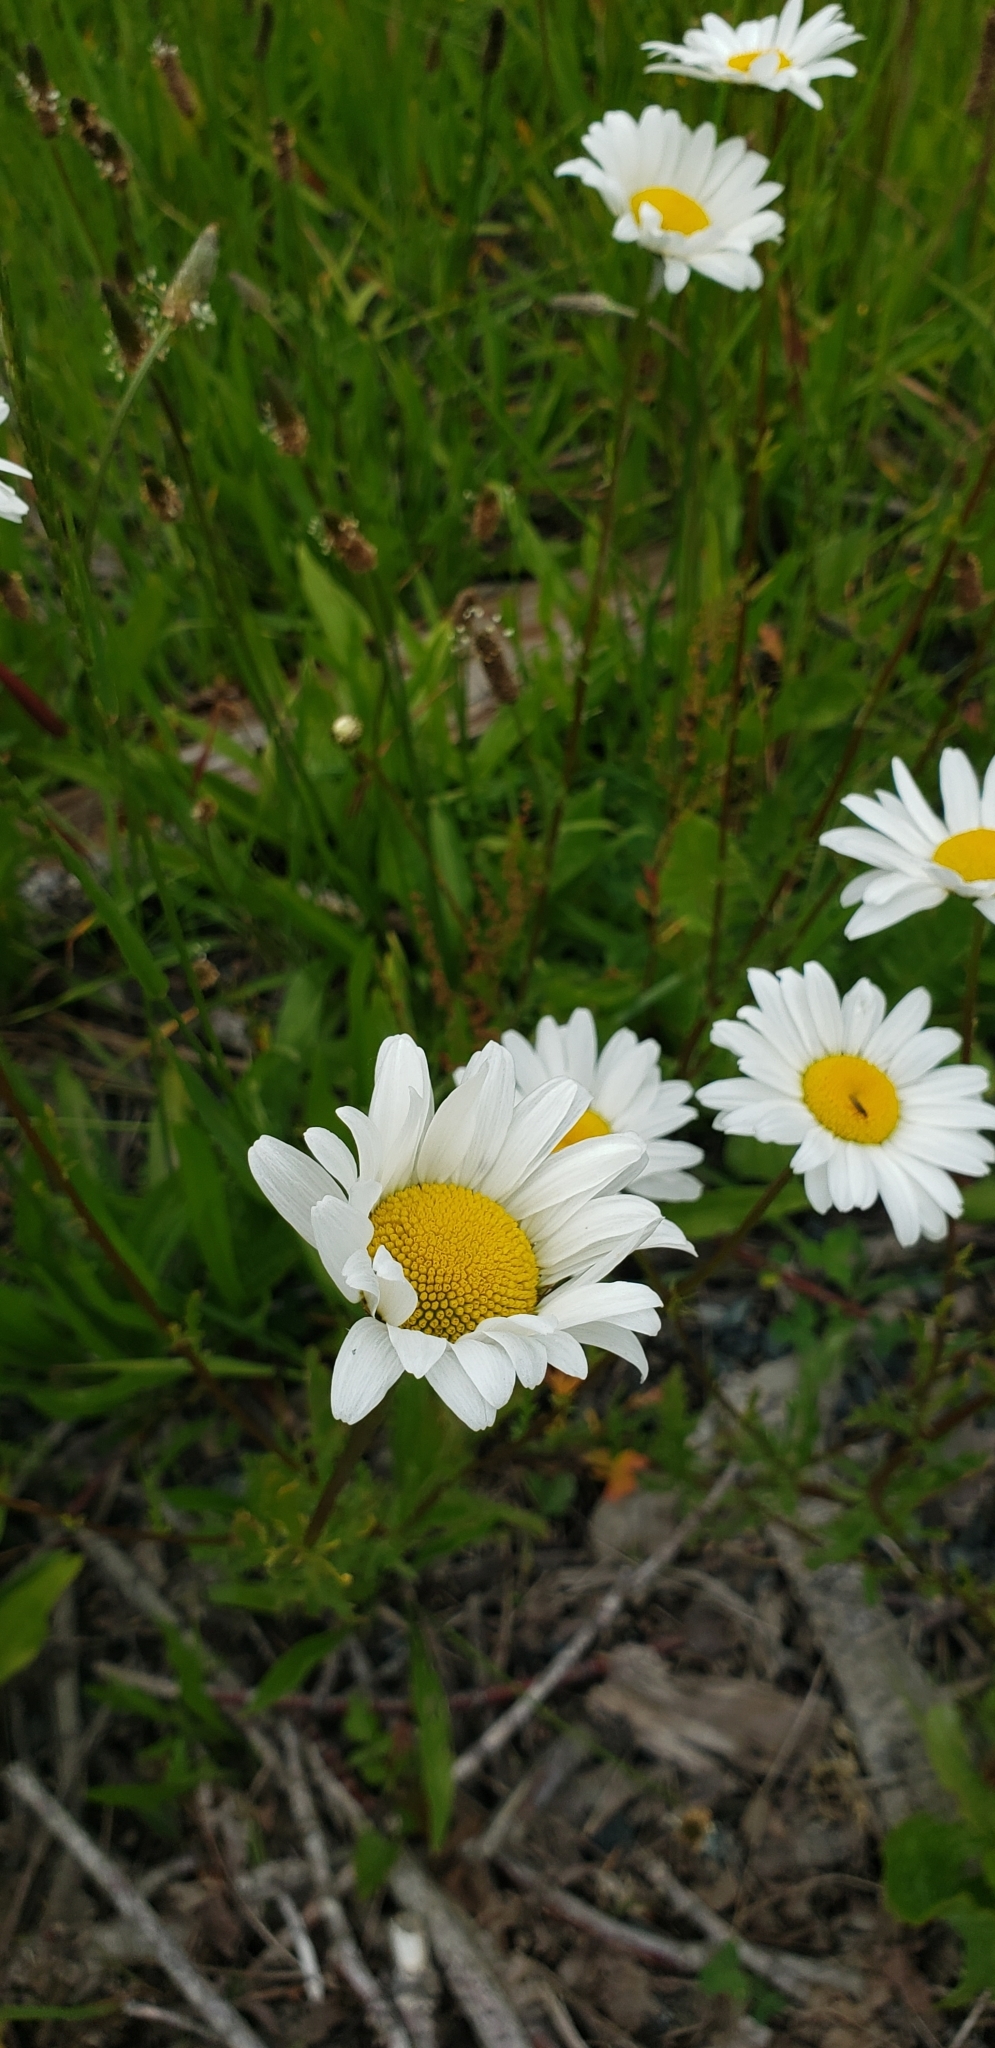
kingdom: Plantae
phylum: Tracheophyta
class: Magnoliopsida
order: Asterales
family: Asteraceae
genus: Leucanthemum
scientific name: Leucanthemum vulgare
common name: Oxeye daisy
